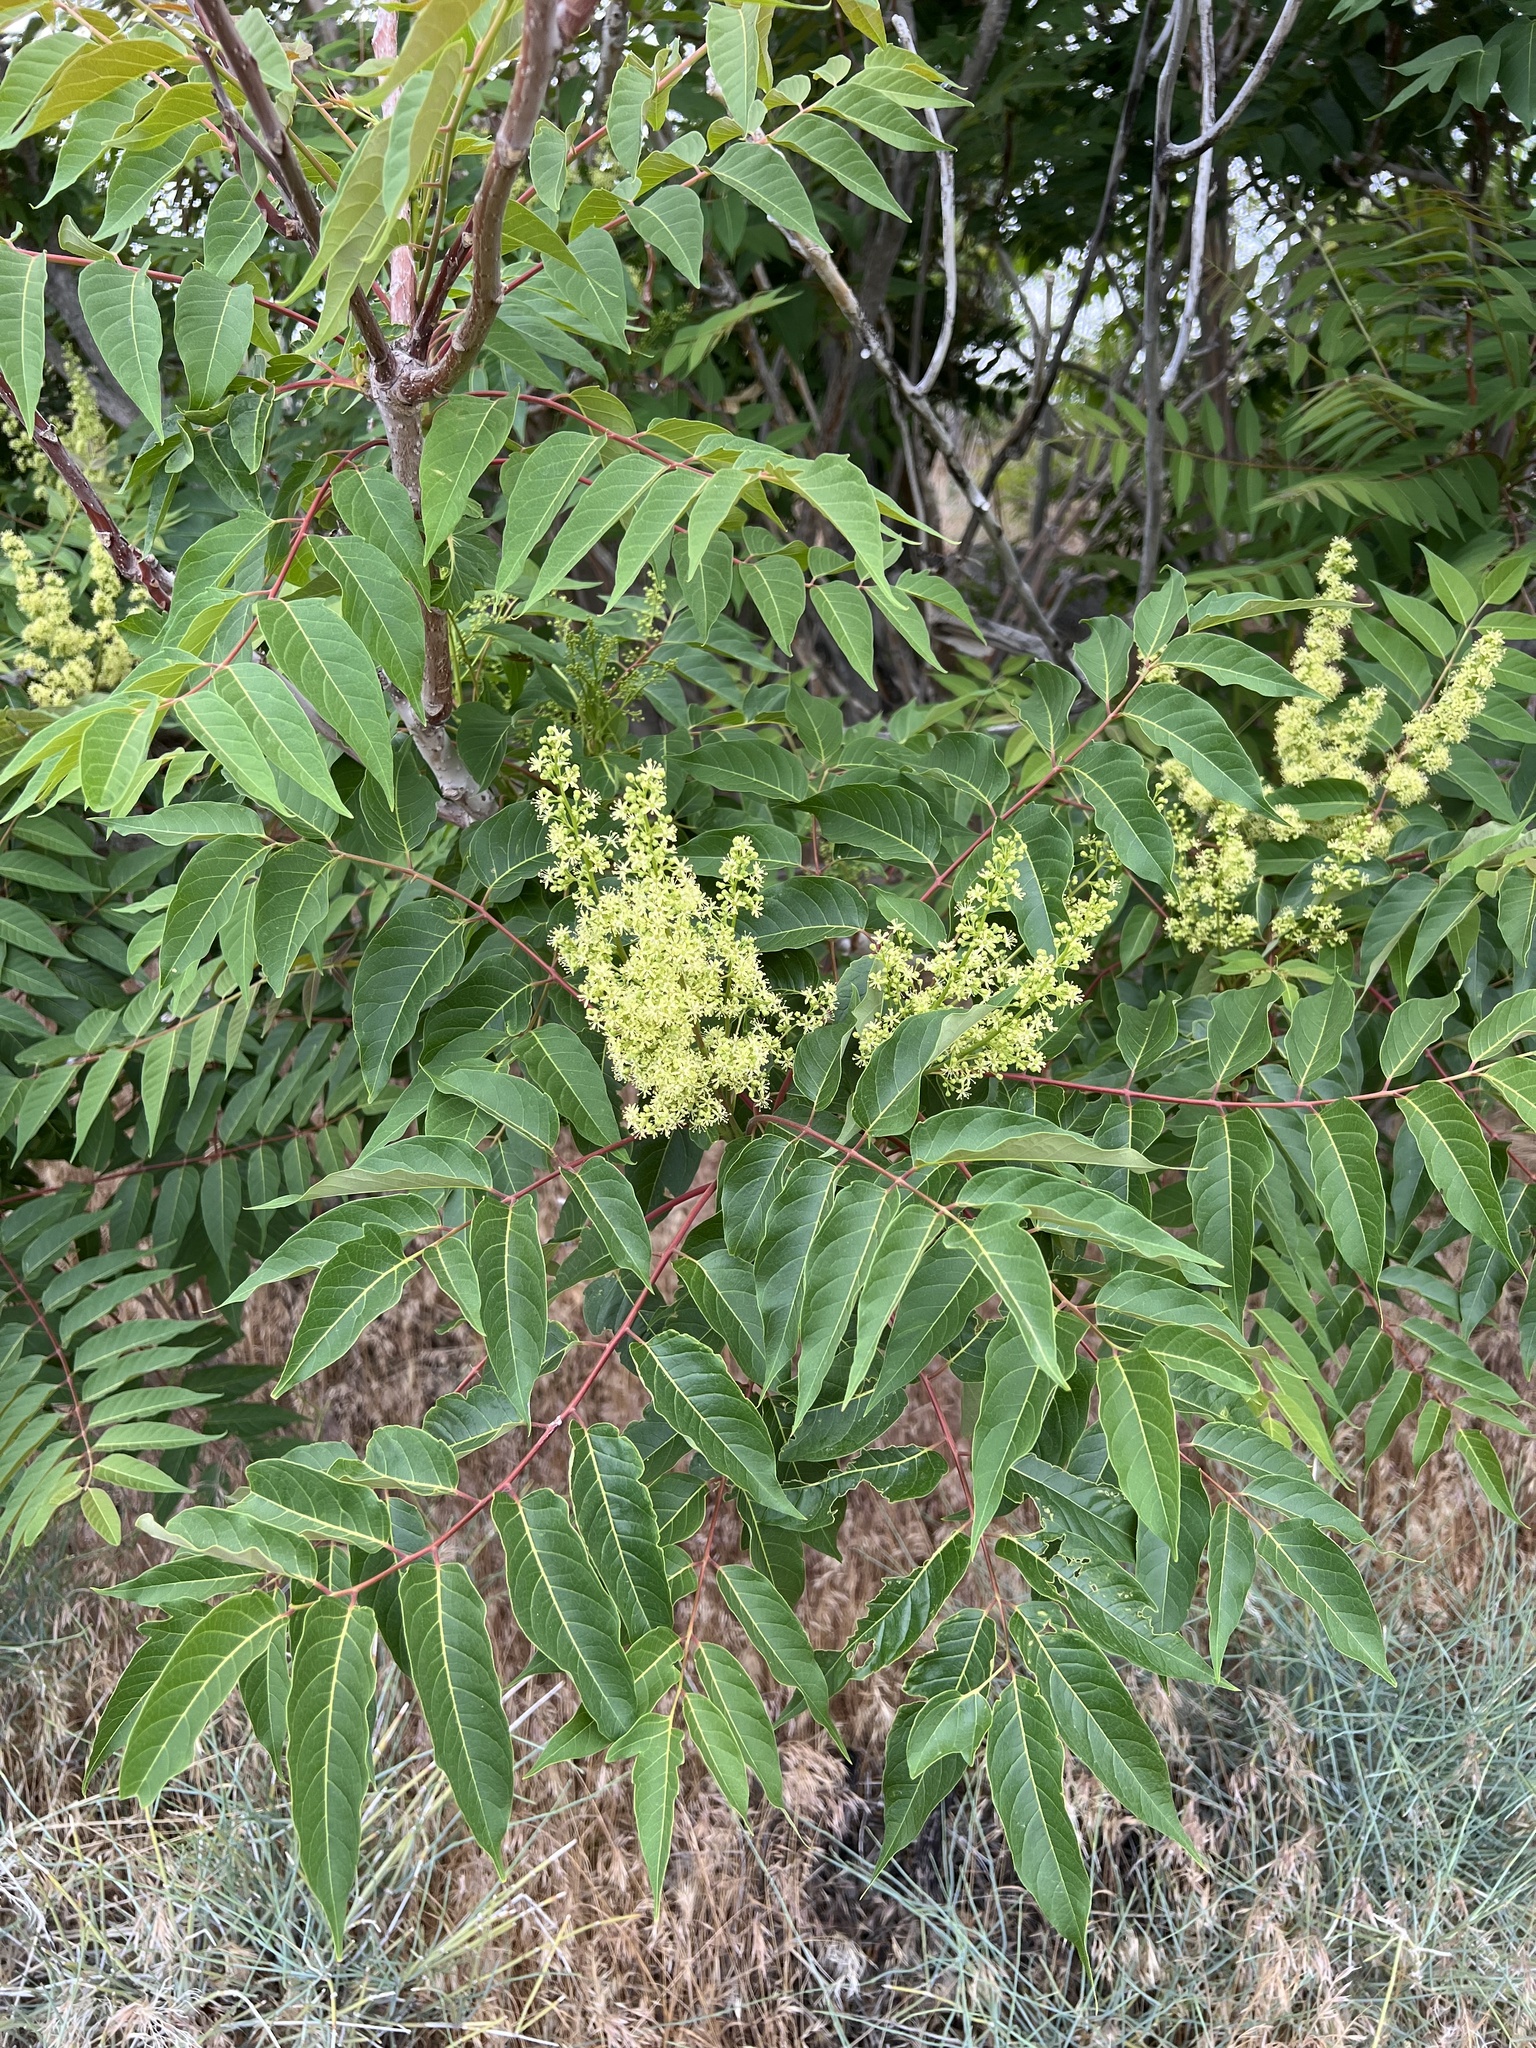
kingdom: Plantae
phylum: Tracheophyta
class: Magnoliopsida
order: Sapindales
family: Simaroubaceae
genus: Ailanthus
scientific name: Ailanthus altissima
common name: Tree-of-heaven
